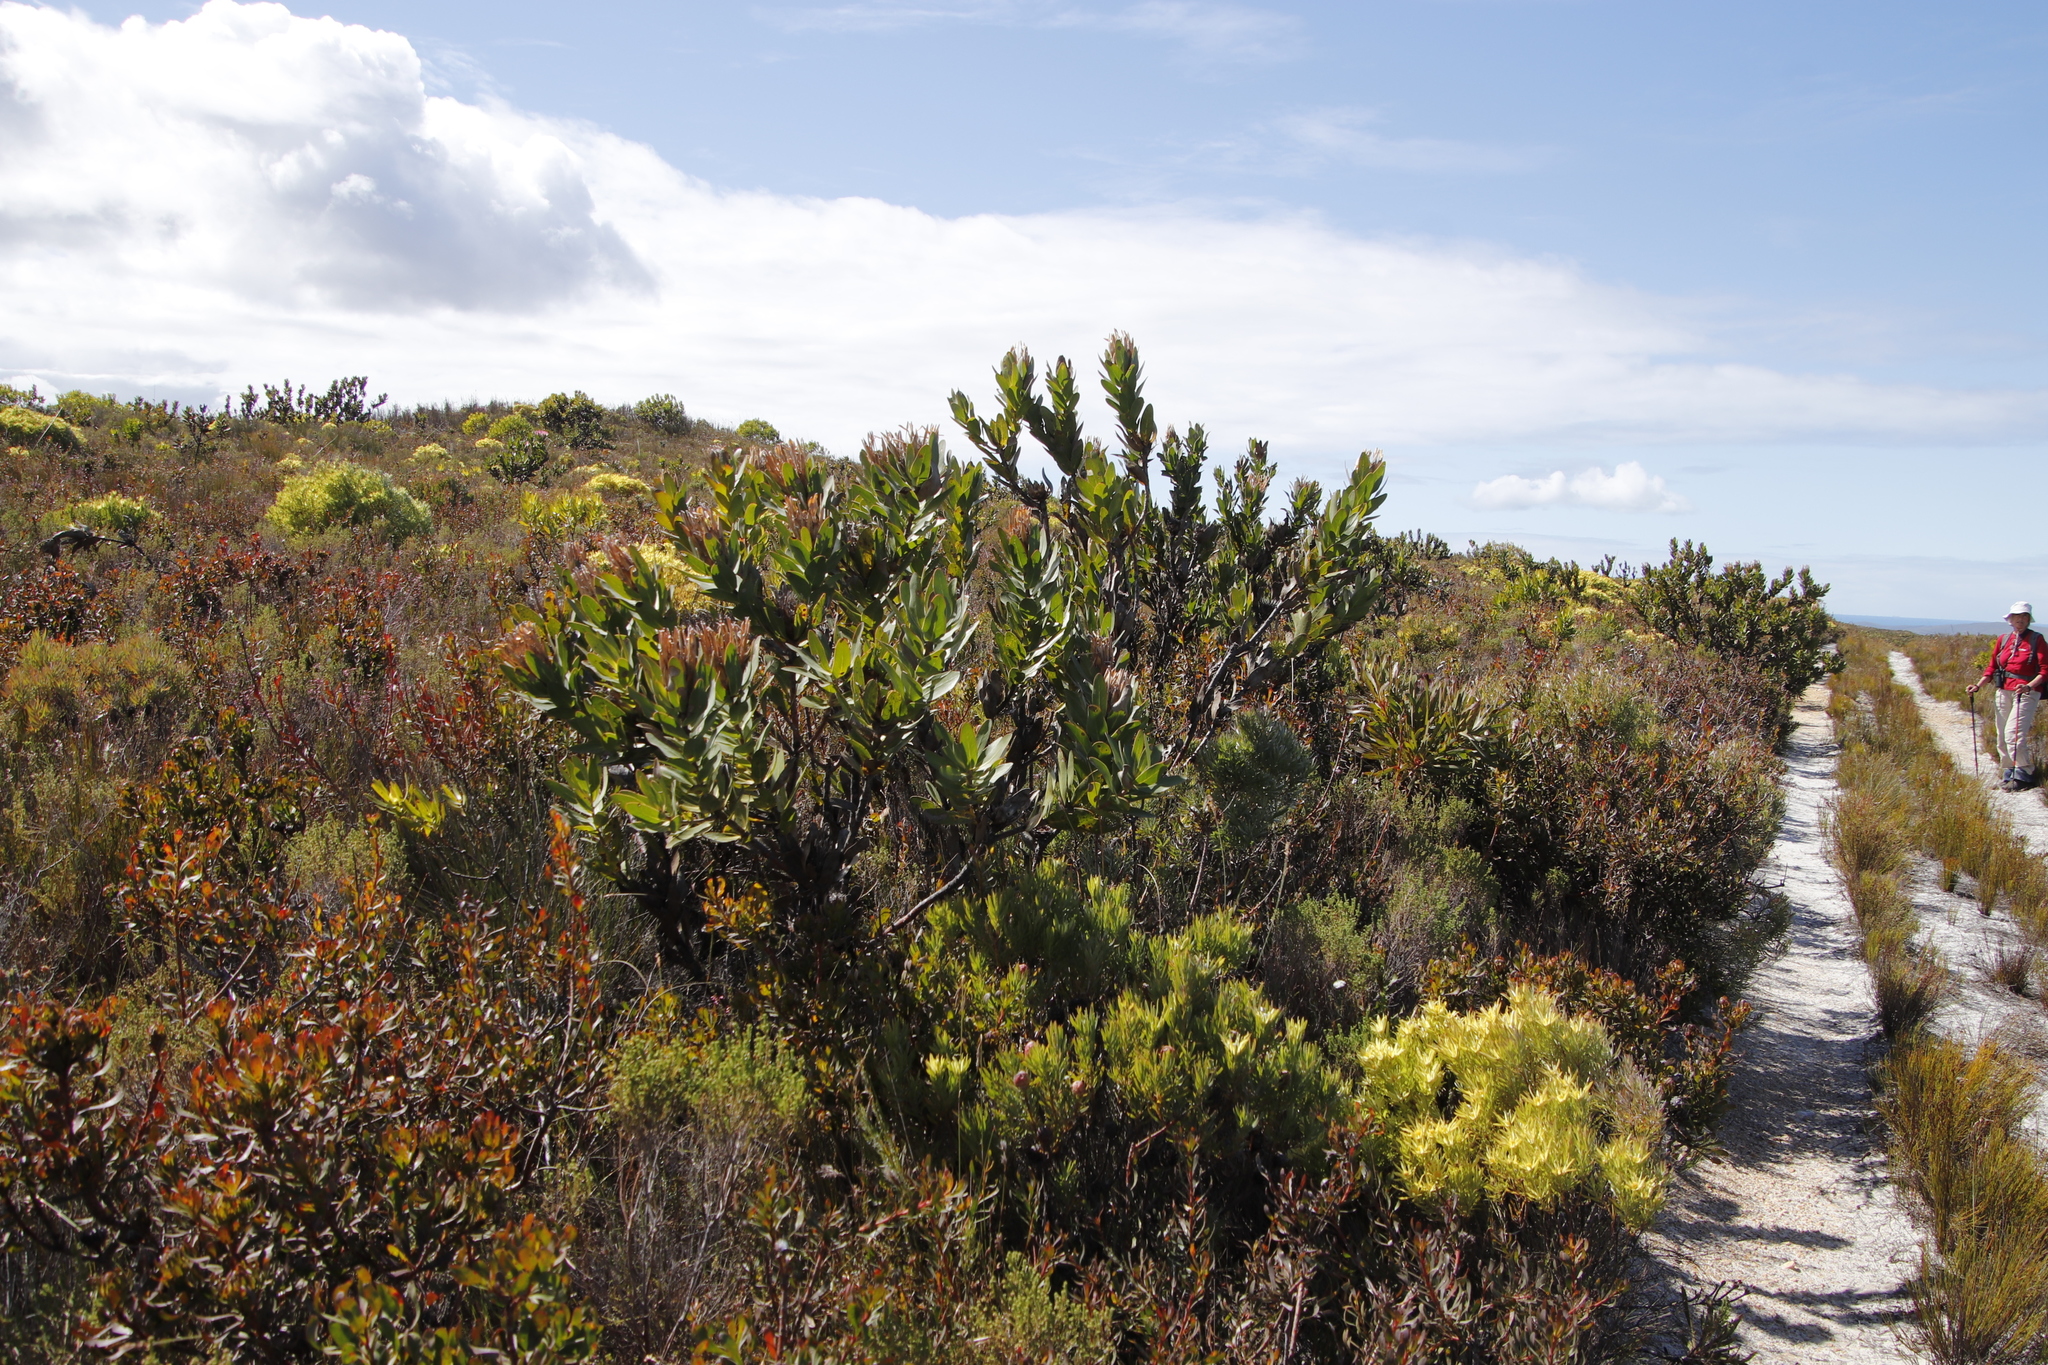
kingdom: Plantae
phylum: Tracheophyta
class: Magnoliopsida
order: Proteales
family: Proteaceae
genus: Protea
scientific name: Protea compacta
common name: Bot river protea
